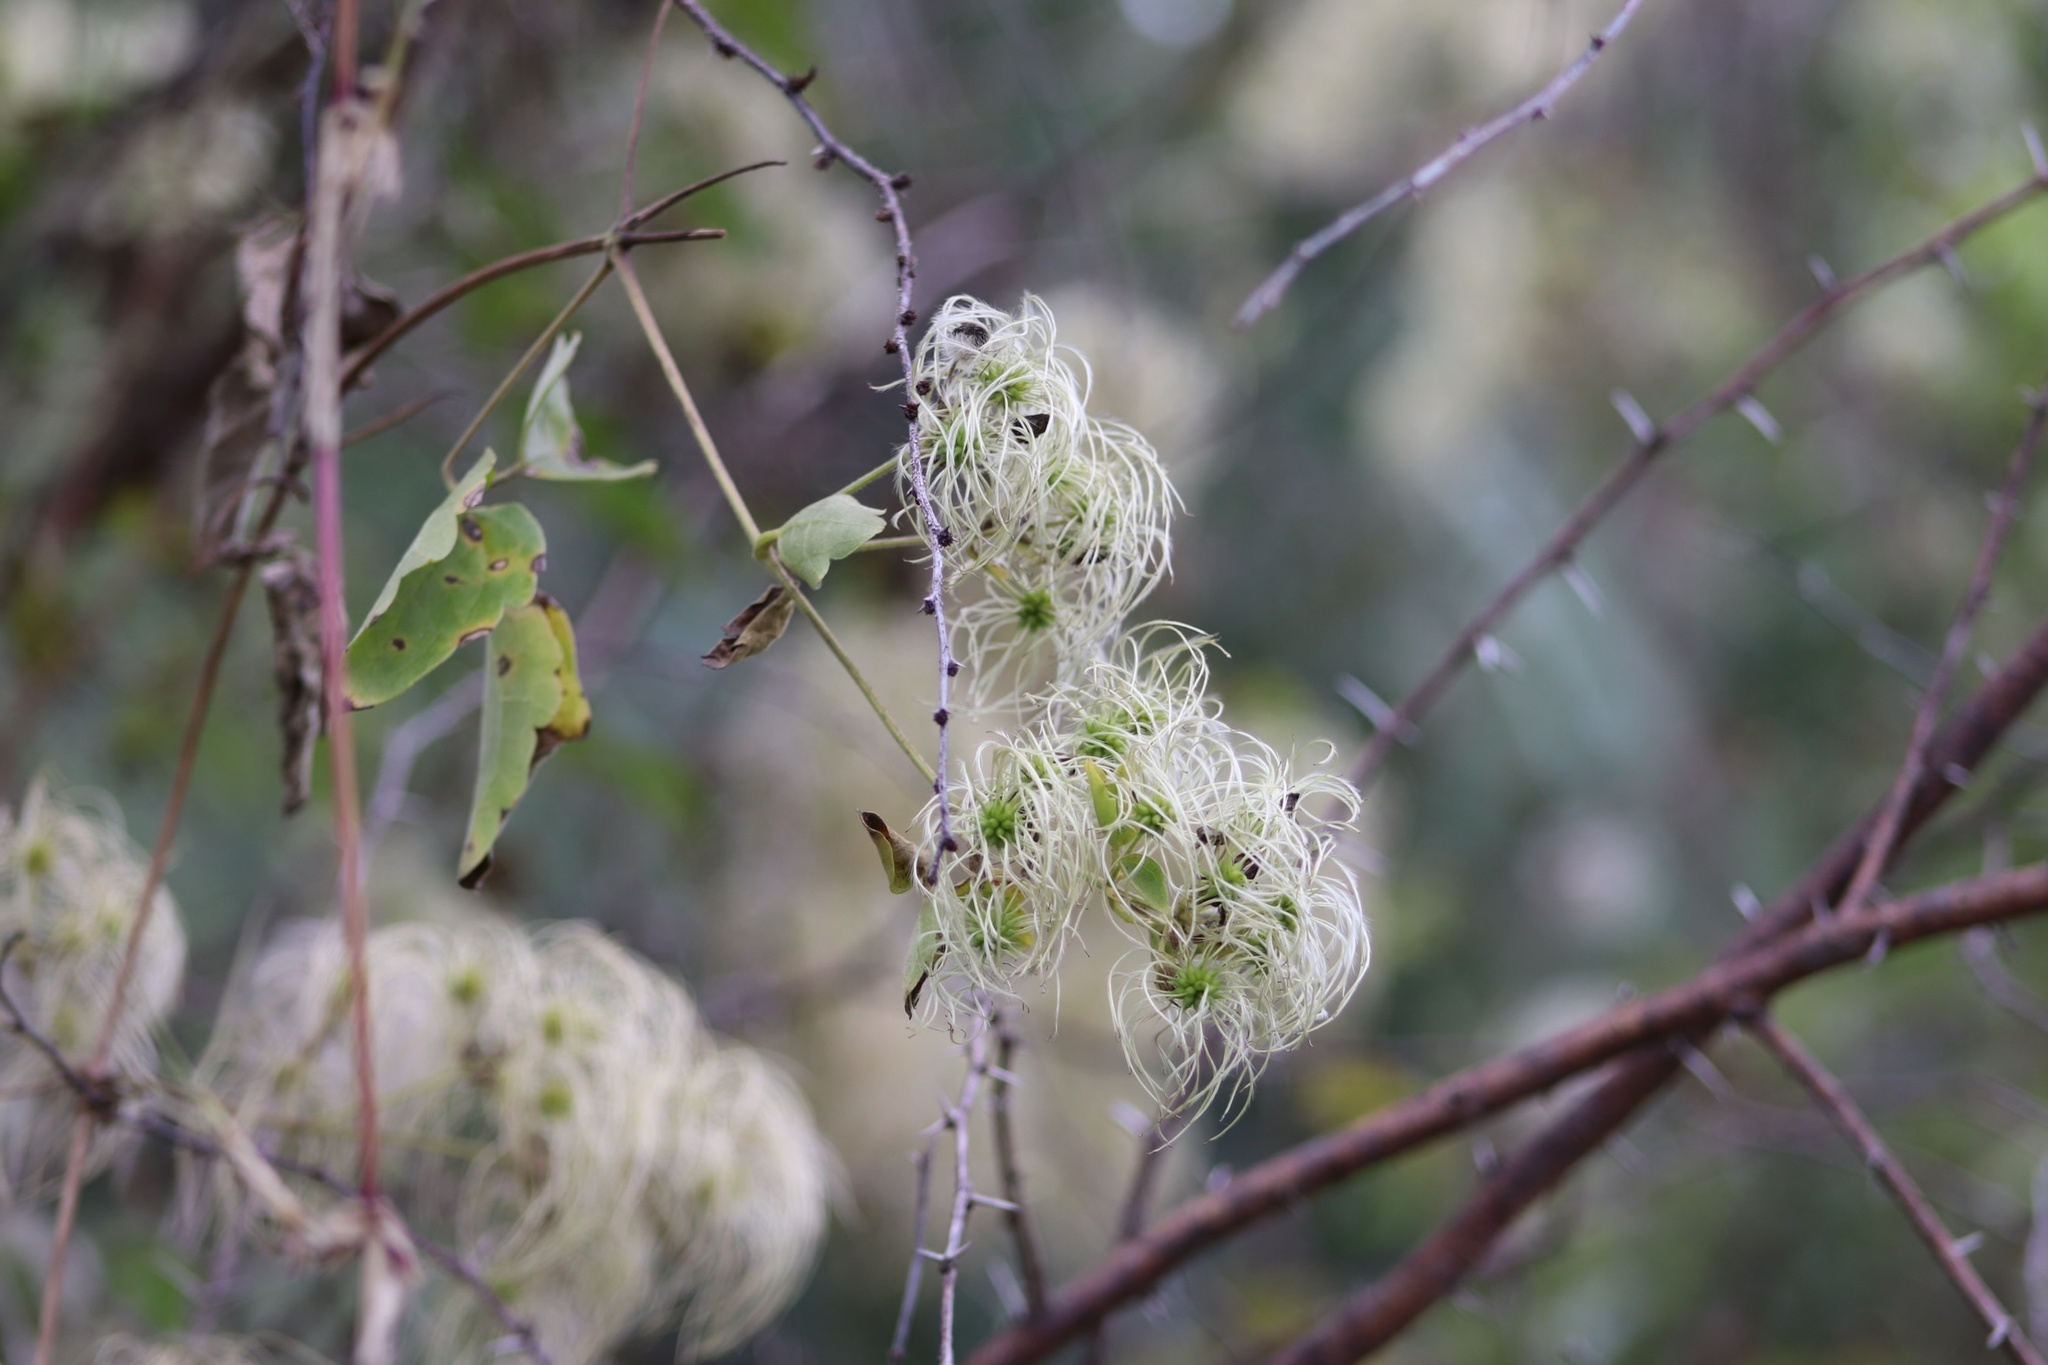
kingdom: Plantae
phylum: Tracheophyta
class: Magnoliopsida
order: Ranunculales
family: Ranunculaceae
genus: Clematis
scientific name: Clematis drummondii
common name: Texas virgin's bower
